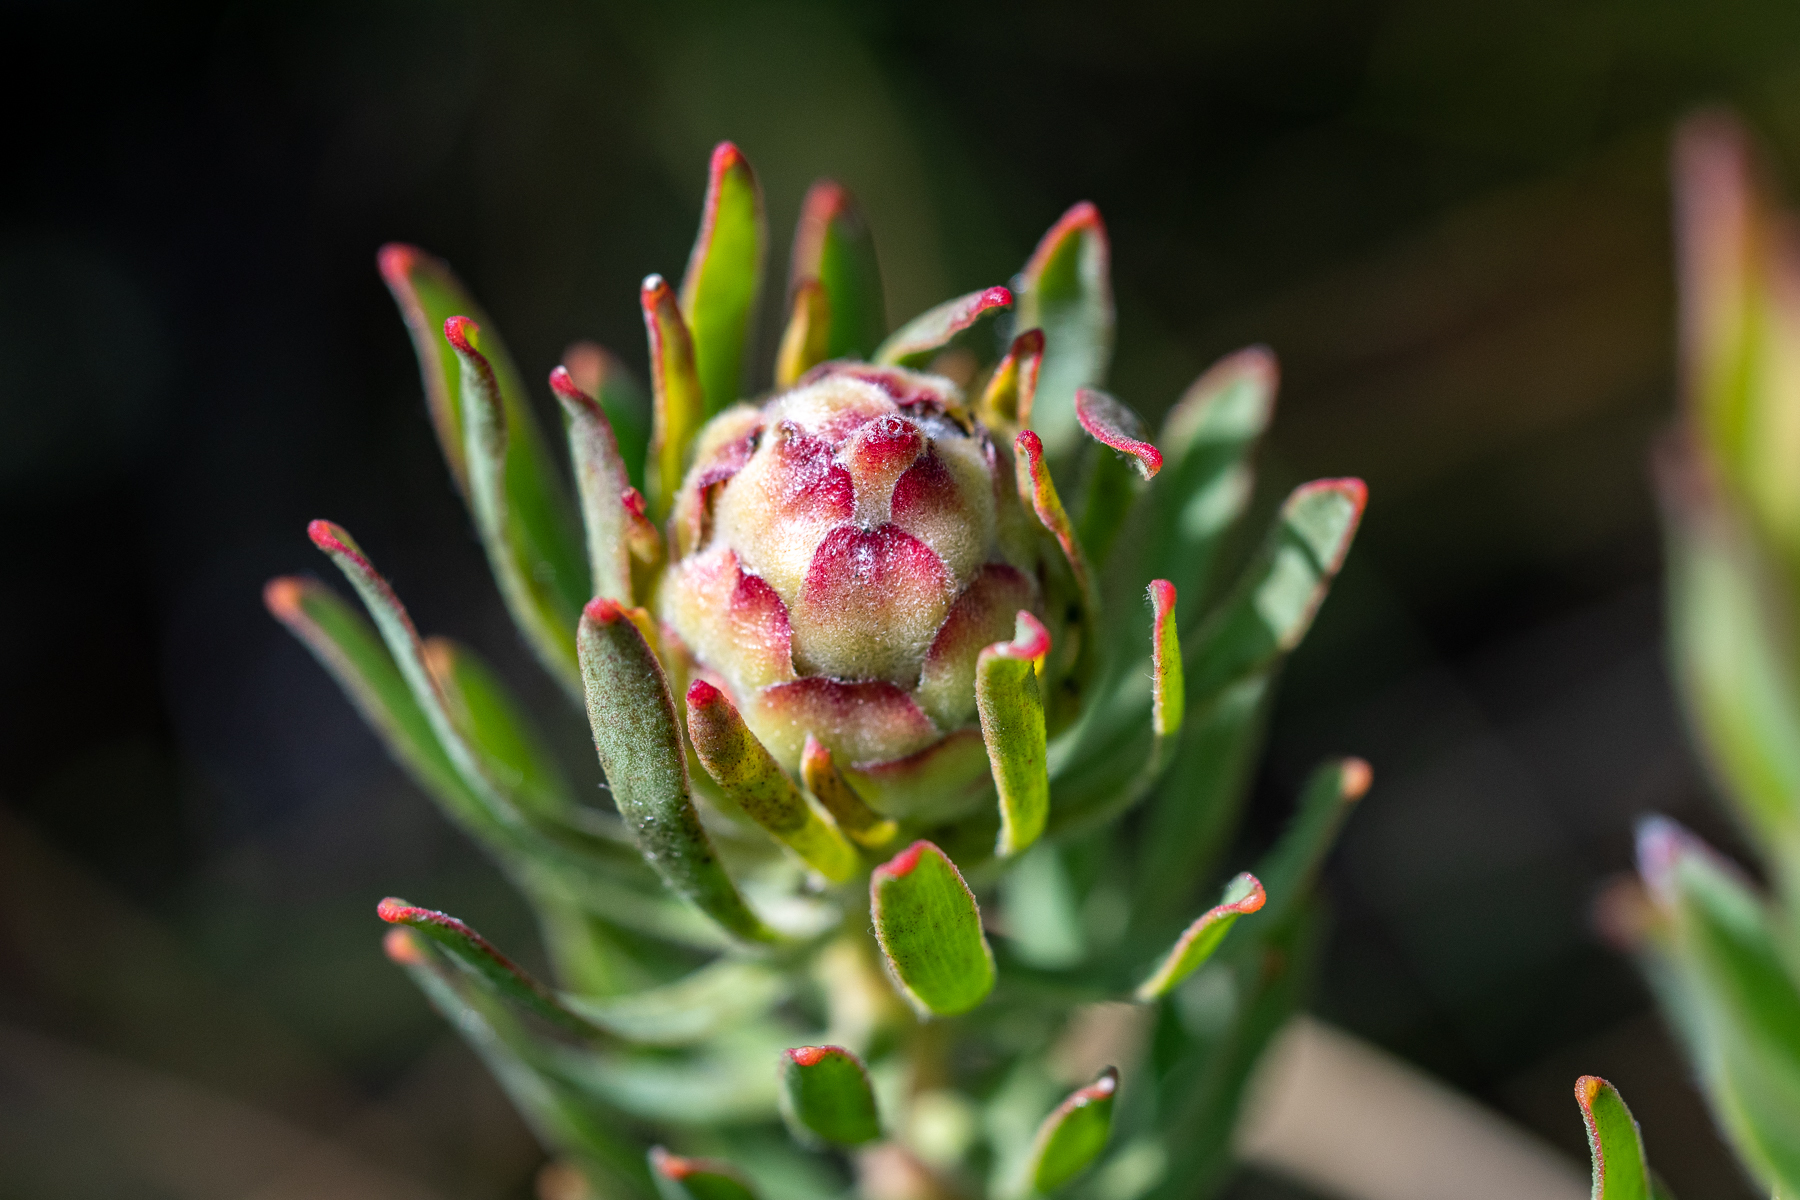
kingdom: Plantae
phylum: Tracheophyta
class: Magnoliopsida
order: Proteales
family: Proteaceae
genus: Leucadendron
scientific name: Leucadendron modestum
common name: Rough-leaf conebush
